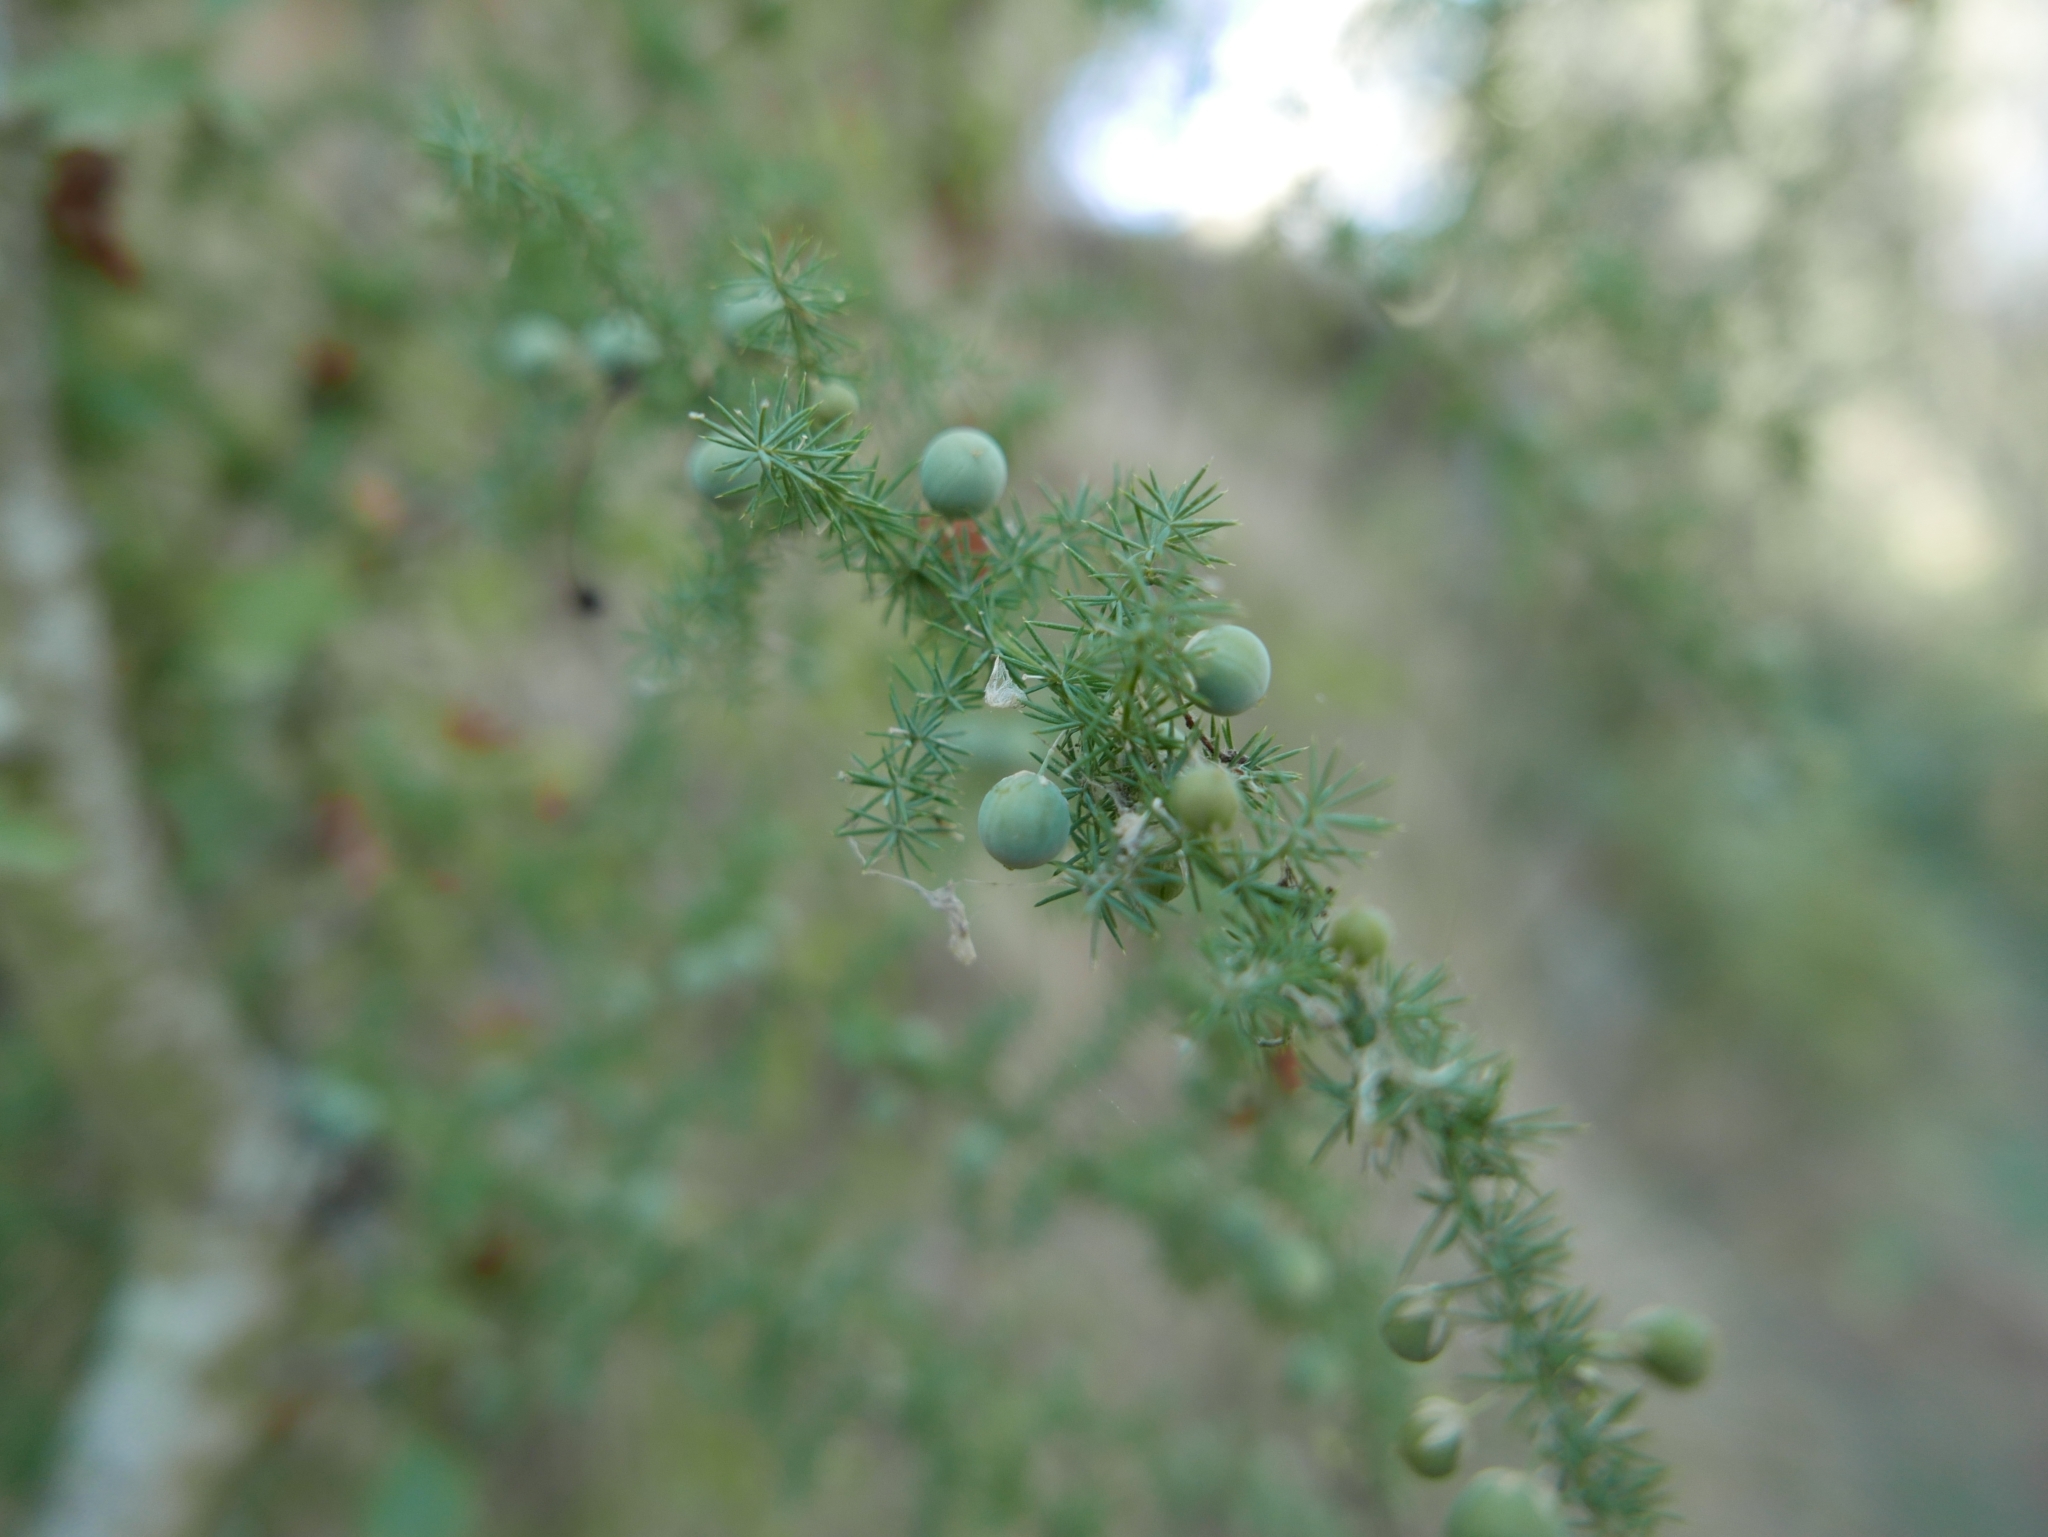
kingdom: Plantae
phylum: Tracheophyta
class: Liliopsida
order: Asparagales
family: Asparagaceae
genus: Asparagus
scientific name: Asparagus acutifolius
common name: Wild asparagus
